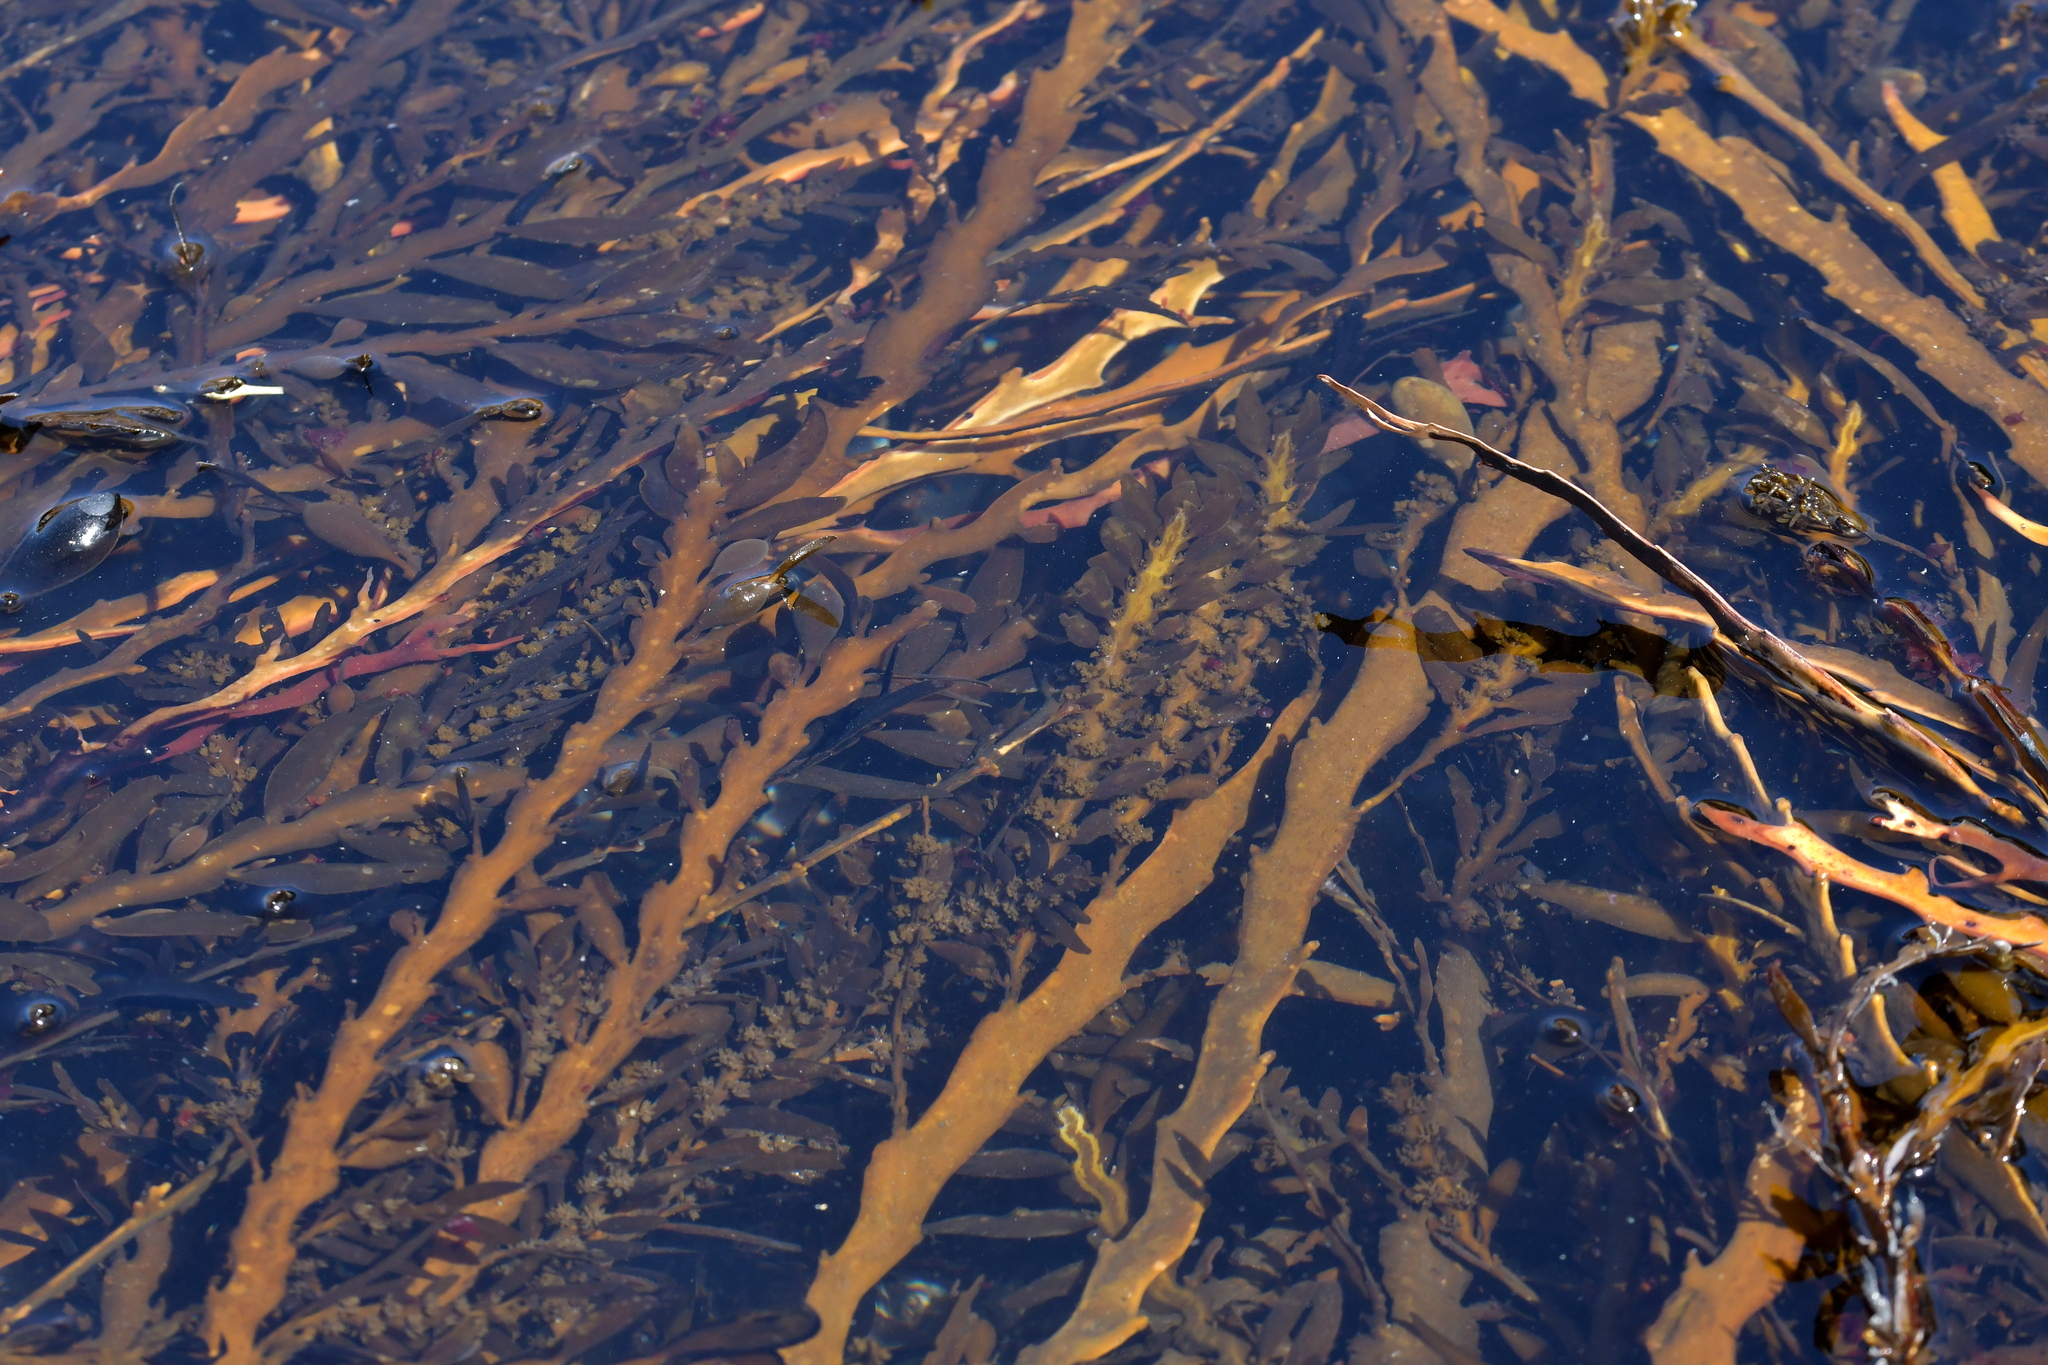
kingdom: Chromista
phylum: Ochrophyta
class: Phaeophyceae
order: Fucales
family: Sargassaceae
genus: Carpophyllum
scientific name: Carpophyllum maschalocarpum
